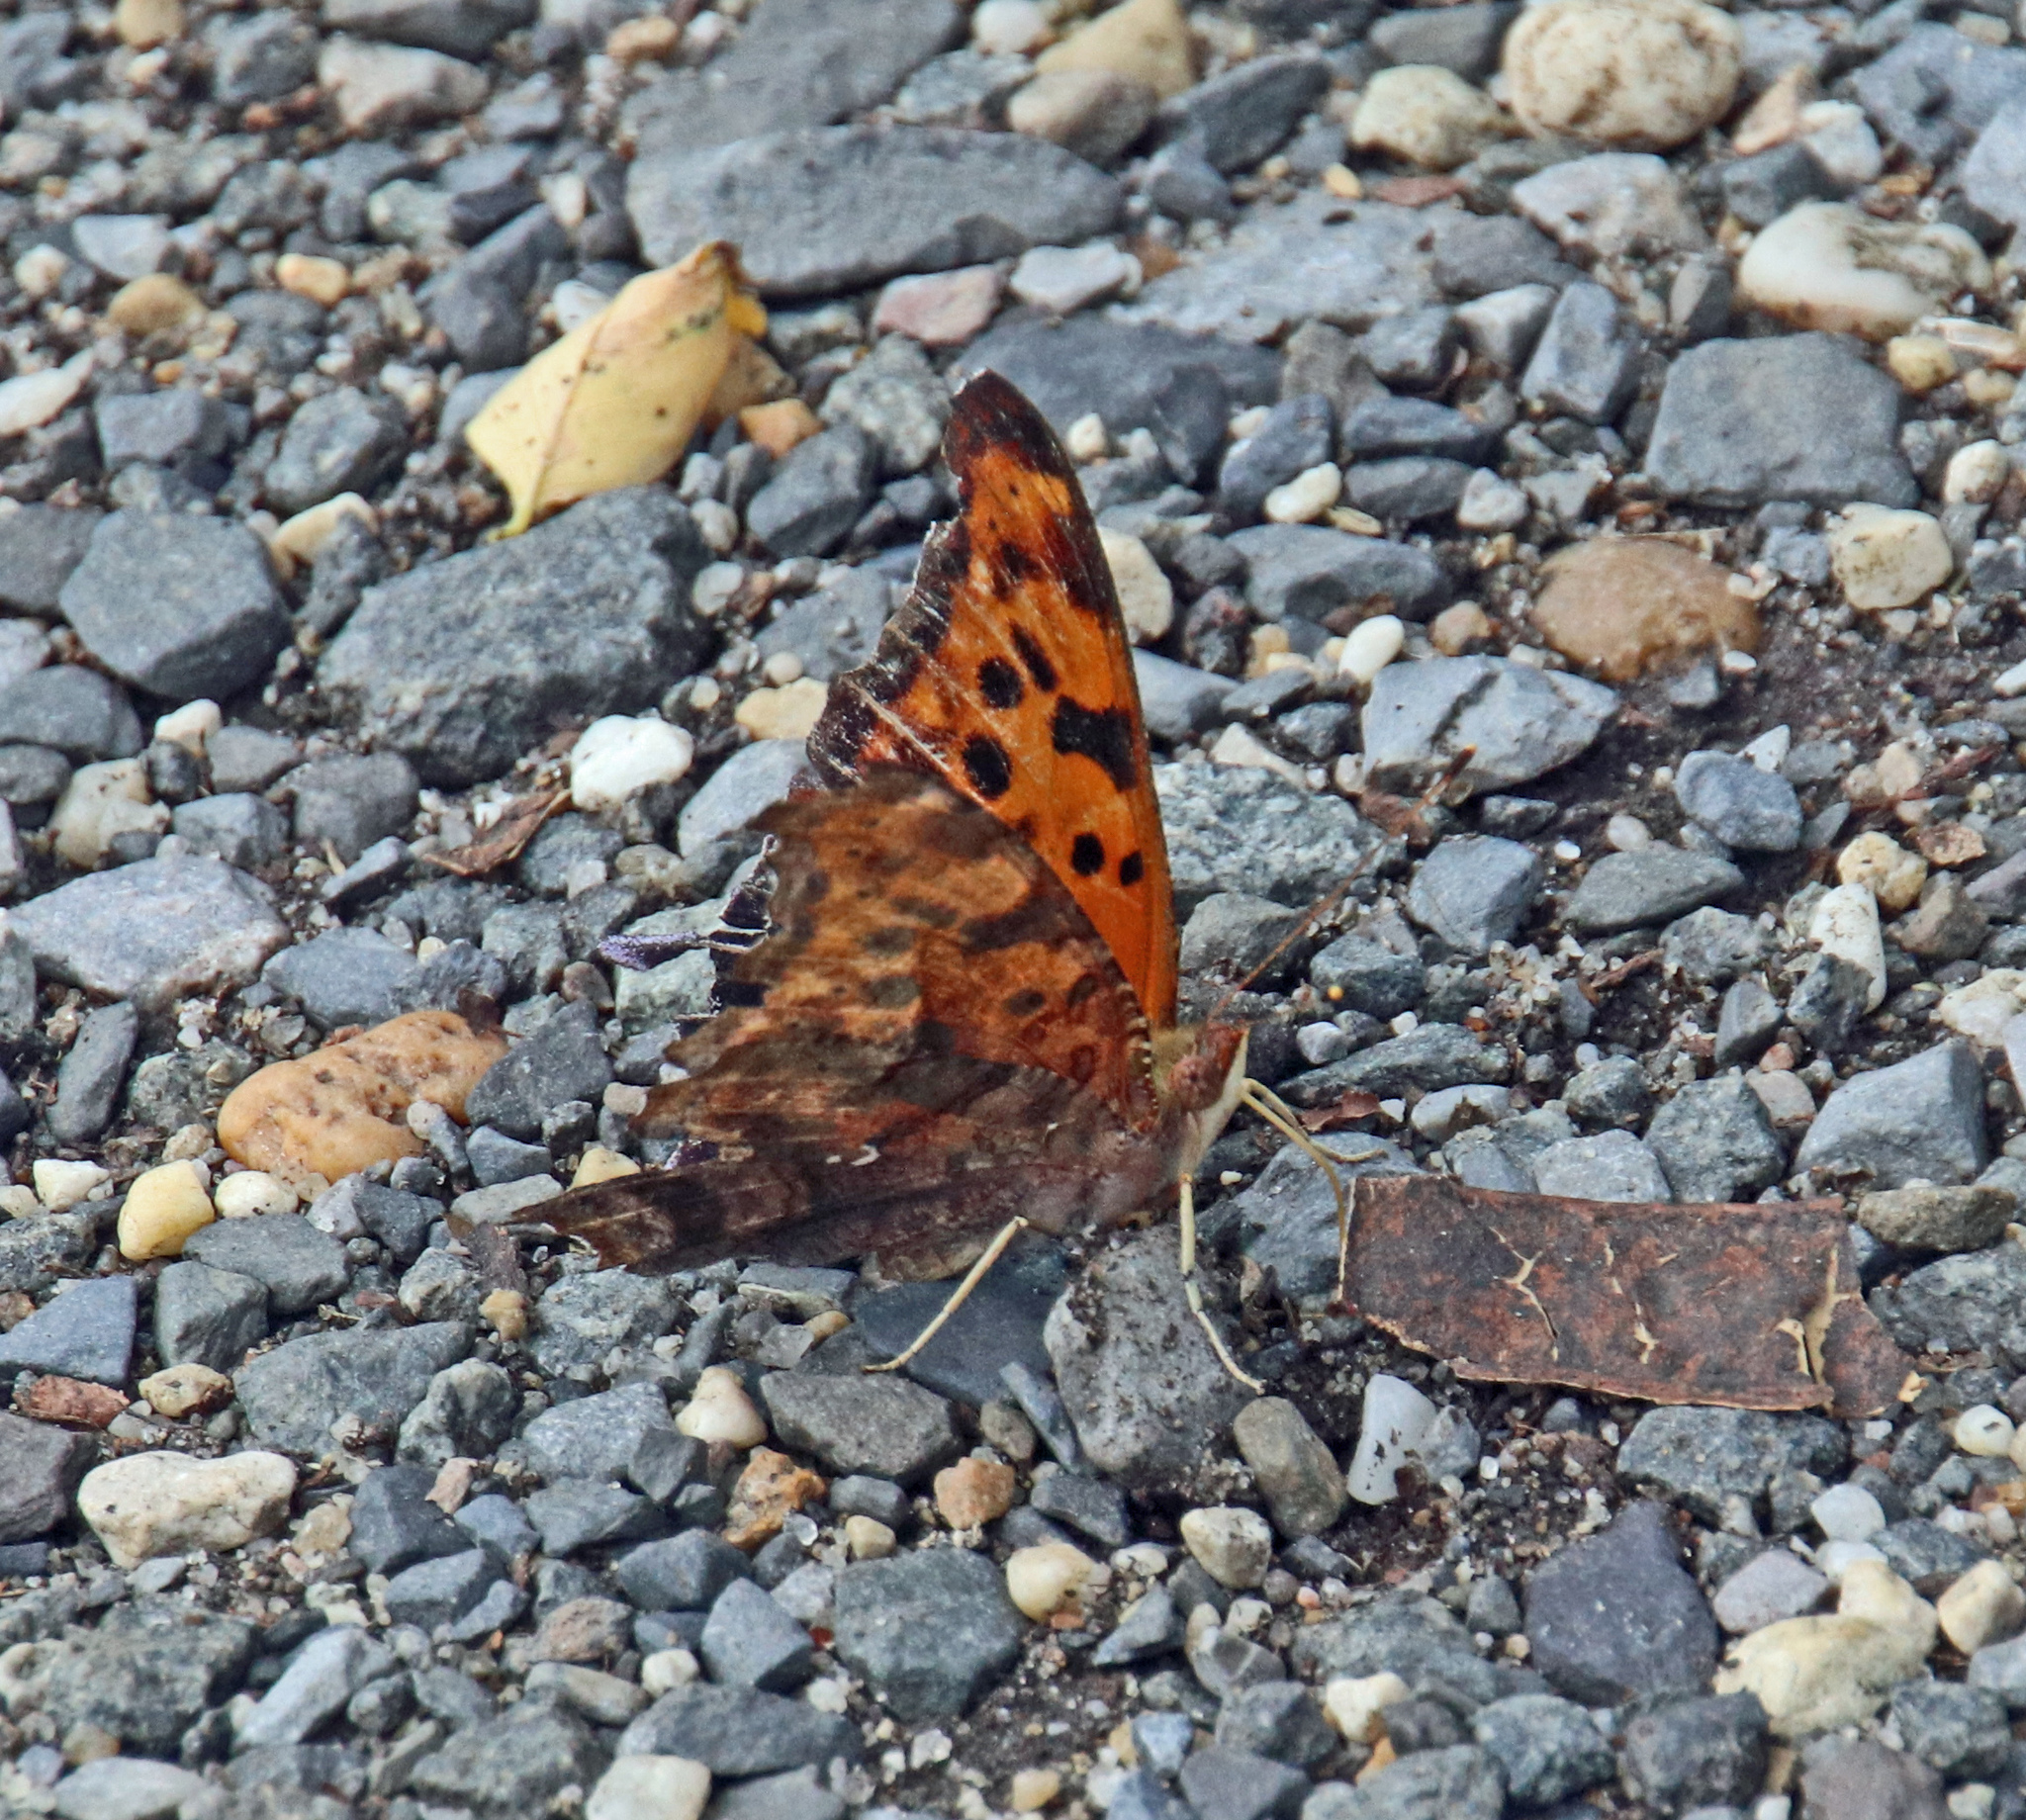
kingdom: Animalia
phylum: Arthropoda
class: Insecta
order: Lepidoptera
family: Nymphalidae
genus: Polygonia
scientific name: Polygonia interrogationis
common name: Question mark
